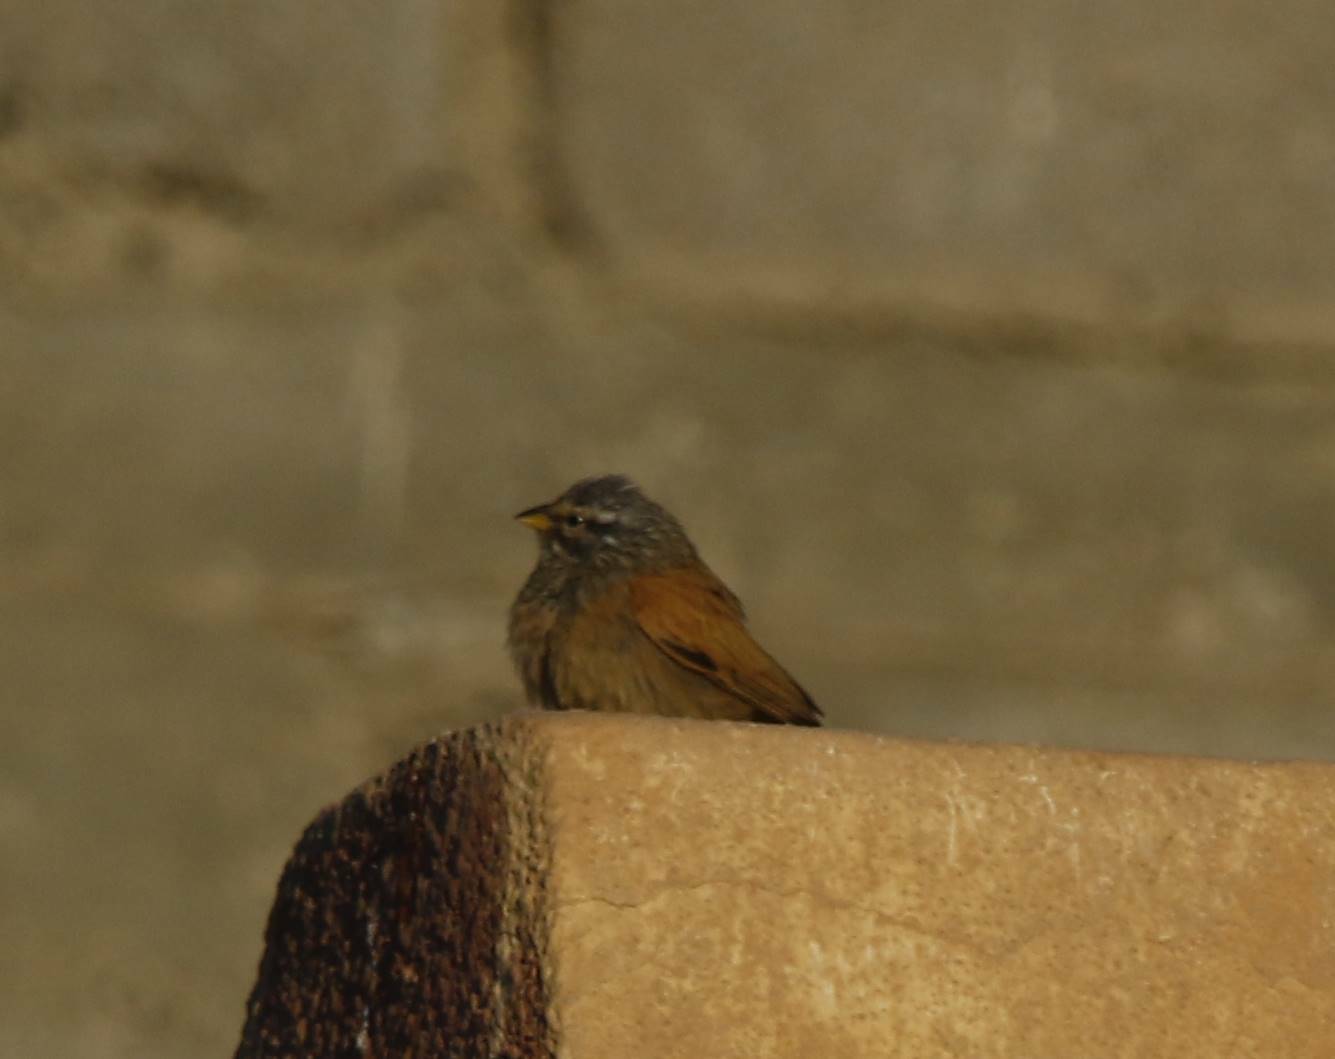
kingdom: Animalia
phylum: Chordata
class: Aves
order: Passeriformes
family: Emberizidae
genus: Emberiza
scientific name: Emberiza sahari
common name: House bunting
